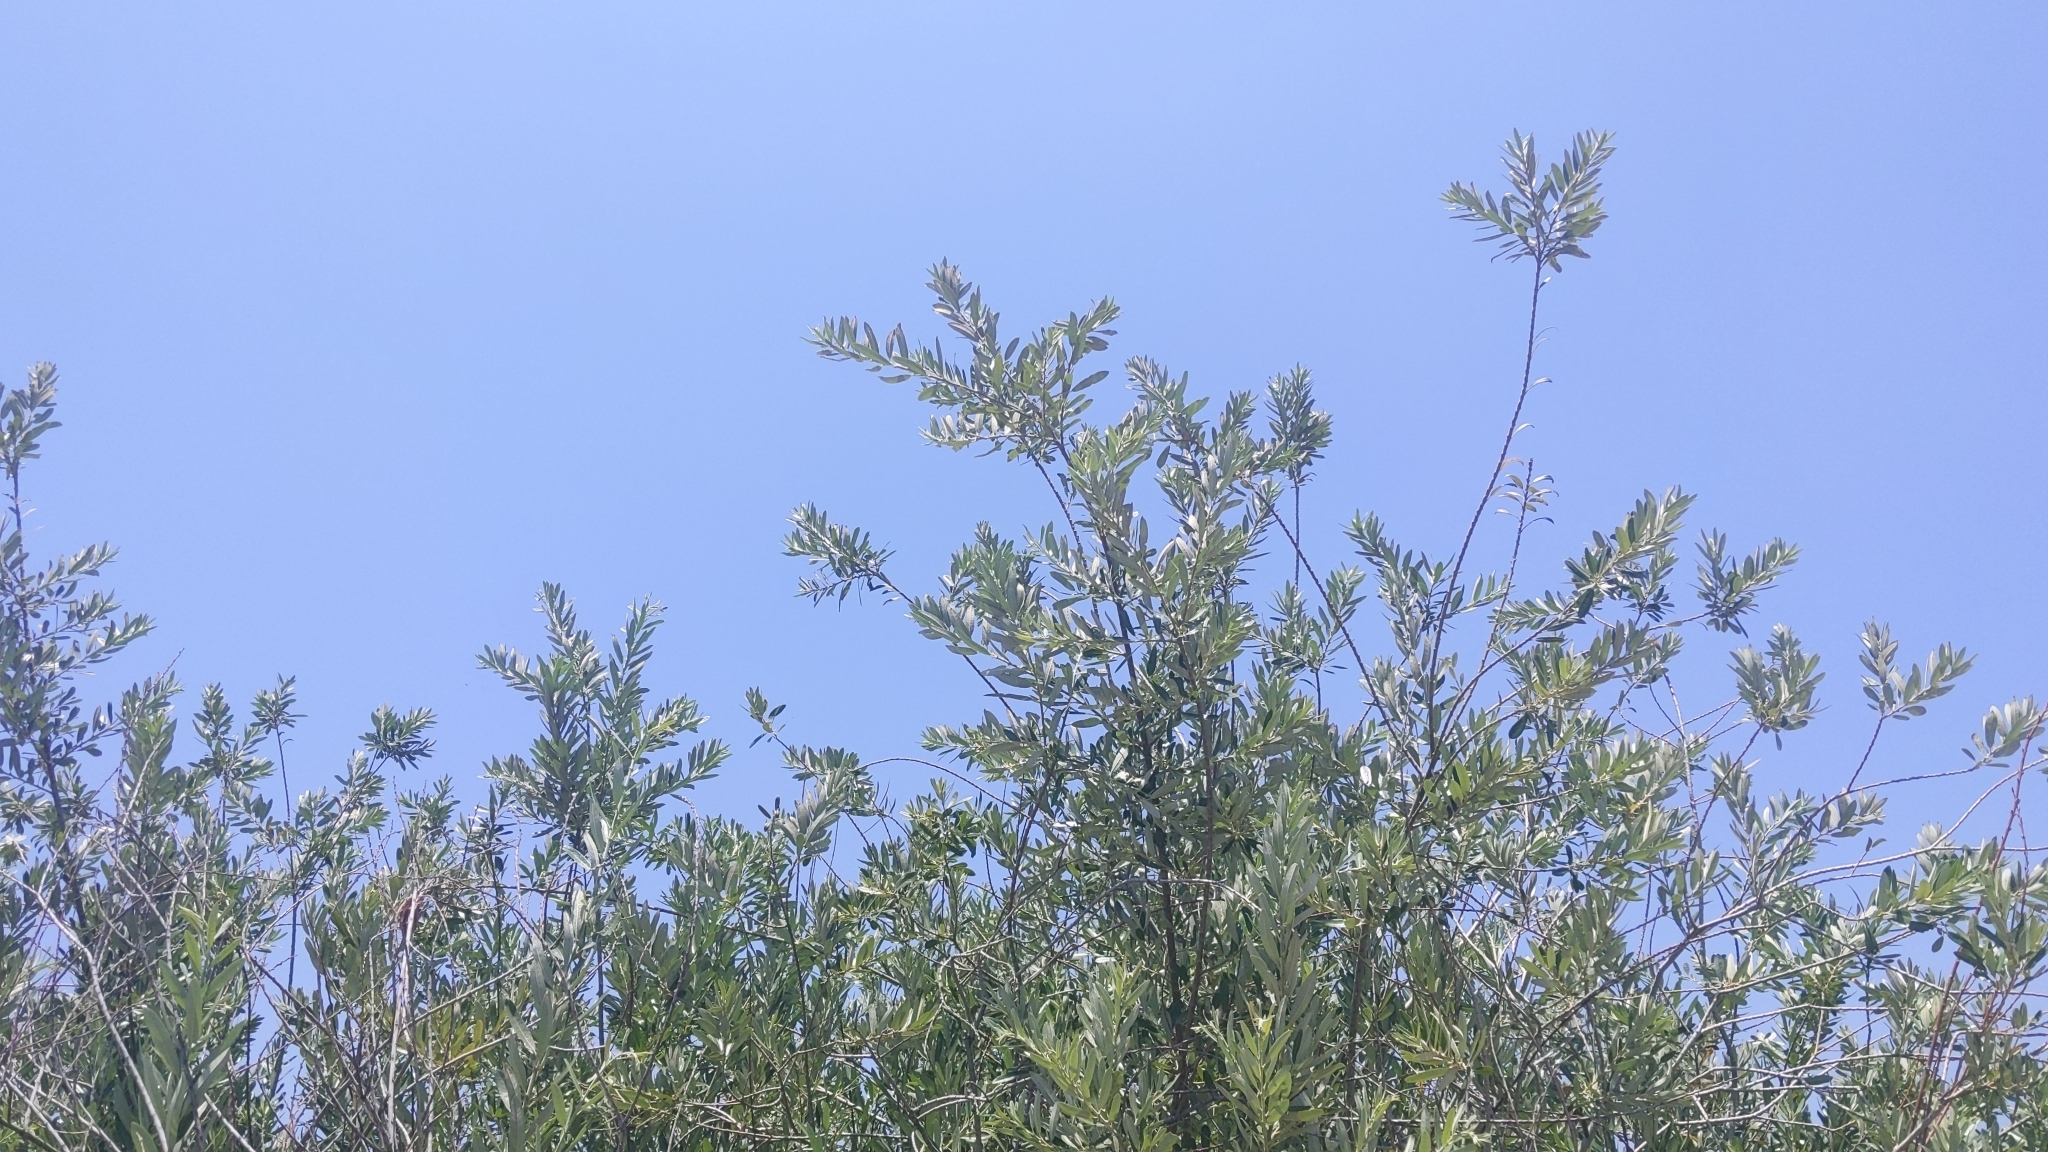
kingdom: Plantae
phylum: Tracheophyta
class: Magnoliopsida
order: Malpighiales
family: Salicaceae
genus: Salix
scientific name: Salix lasiolepis
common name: Arroyo willow
